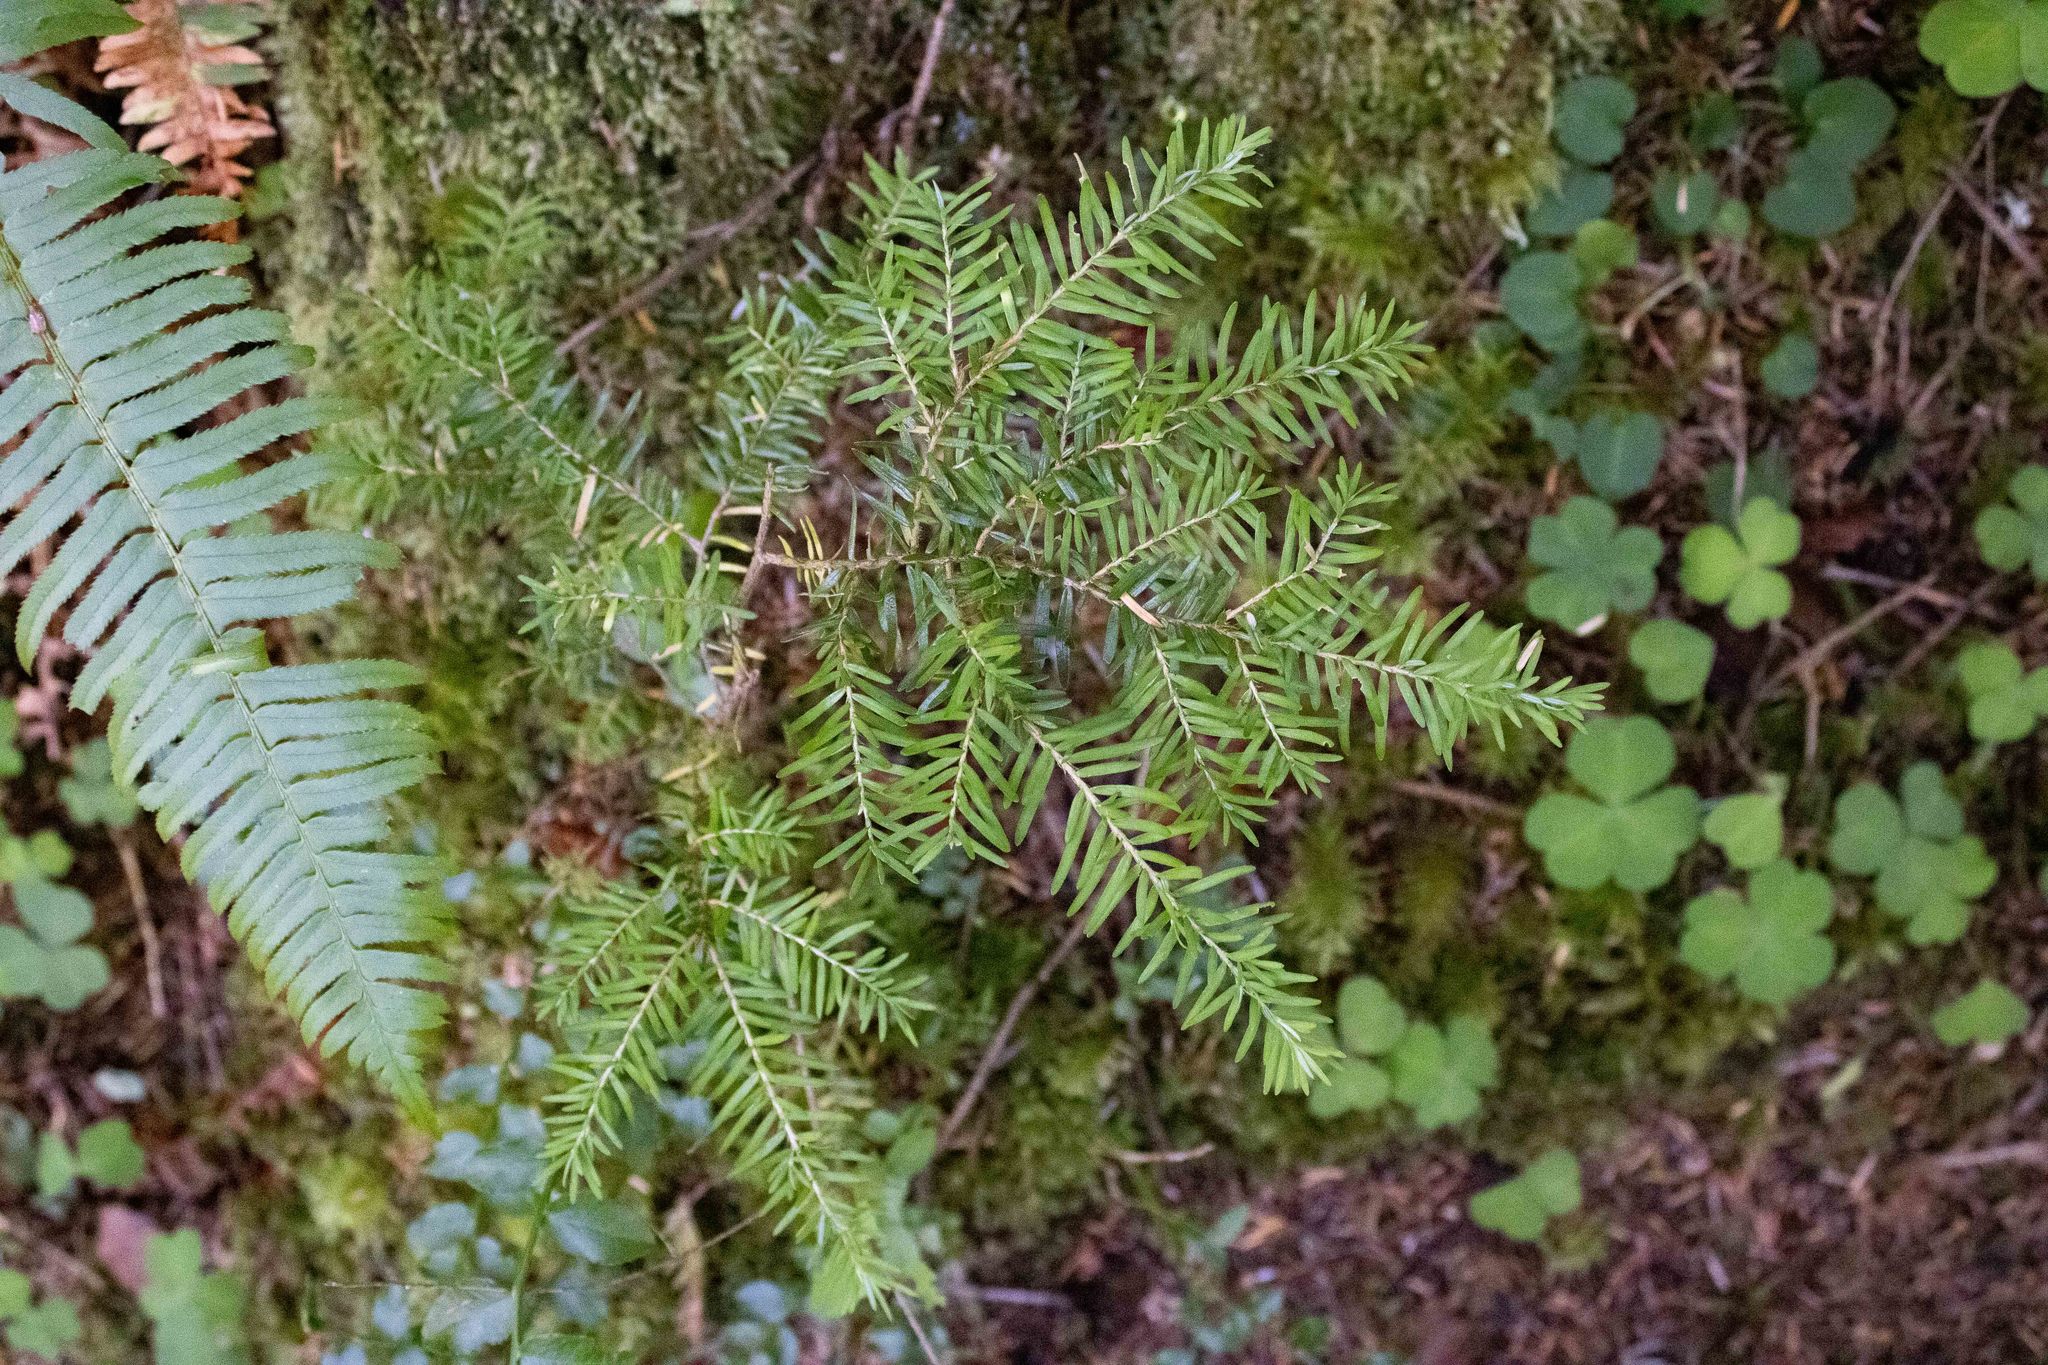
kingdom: Plantae
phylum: Tracheophyta
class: Pinopsida
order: Pinales
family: Pinaceae
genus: Tsuga
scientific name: Tsuga heterophylla
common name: Western hemlock
